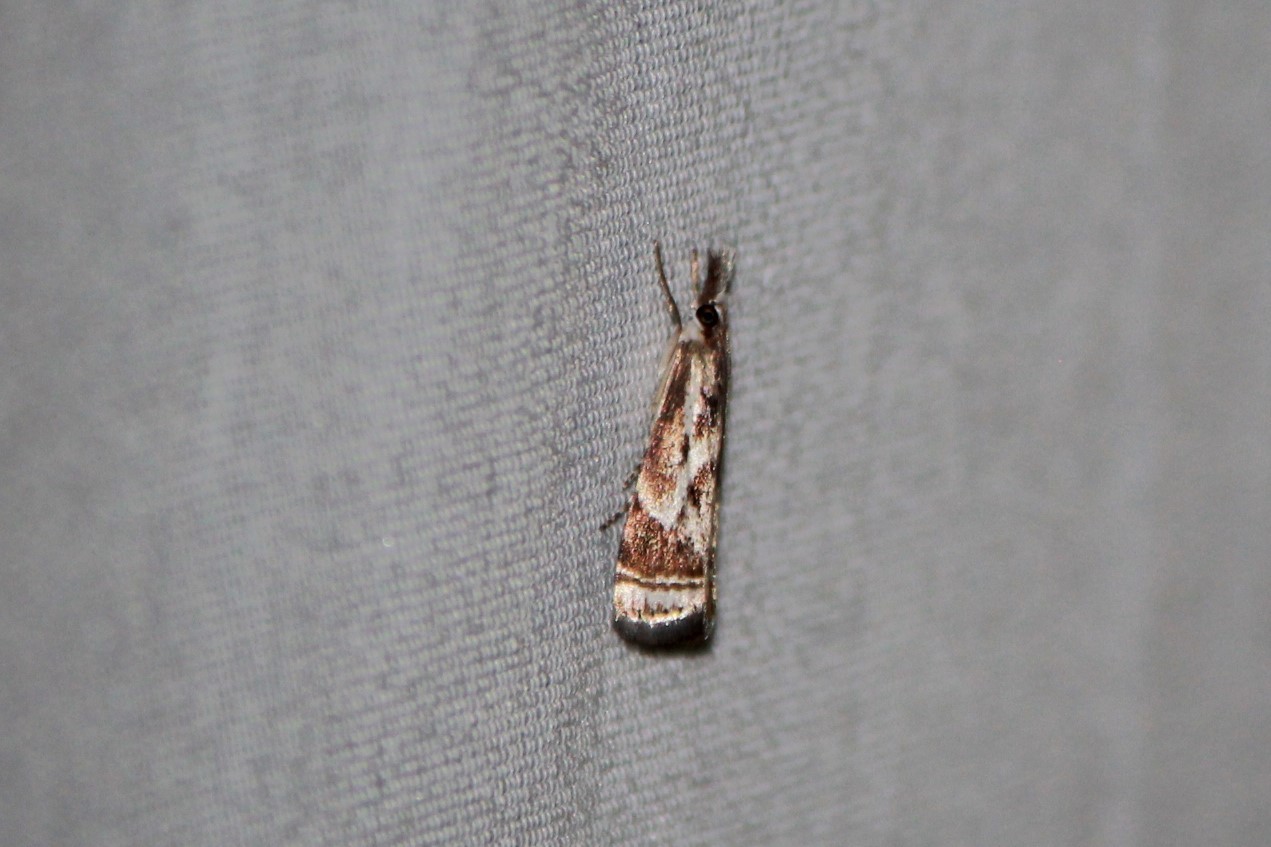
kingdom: Animalia
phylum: Arthropoda
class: Insecta
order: Lepidoptera
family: Crambidae
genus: Microcrambus
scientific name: Microcrambus elegans
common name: Elegant grass-veneer
